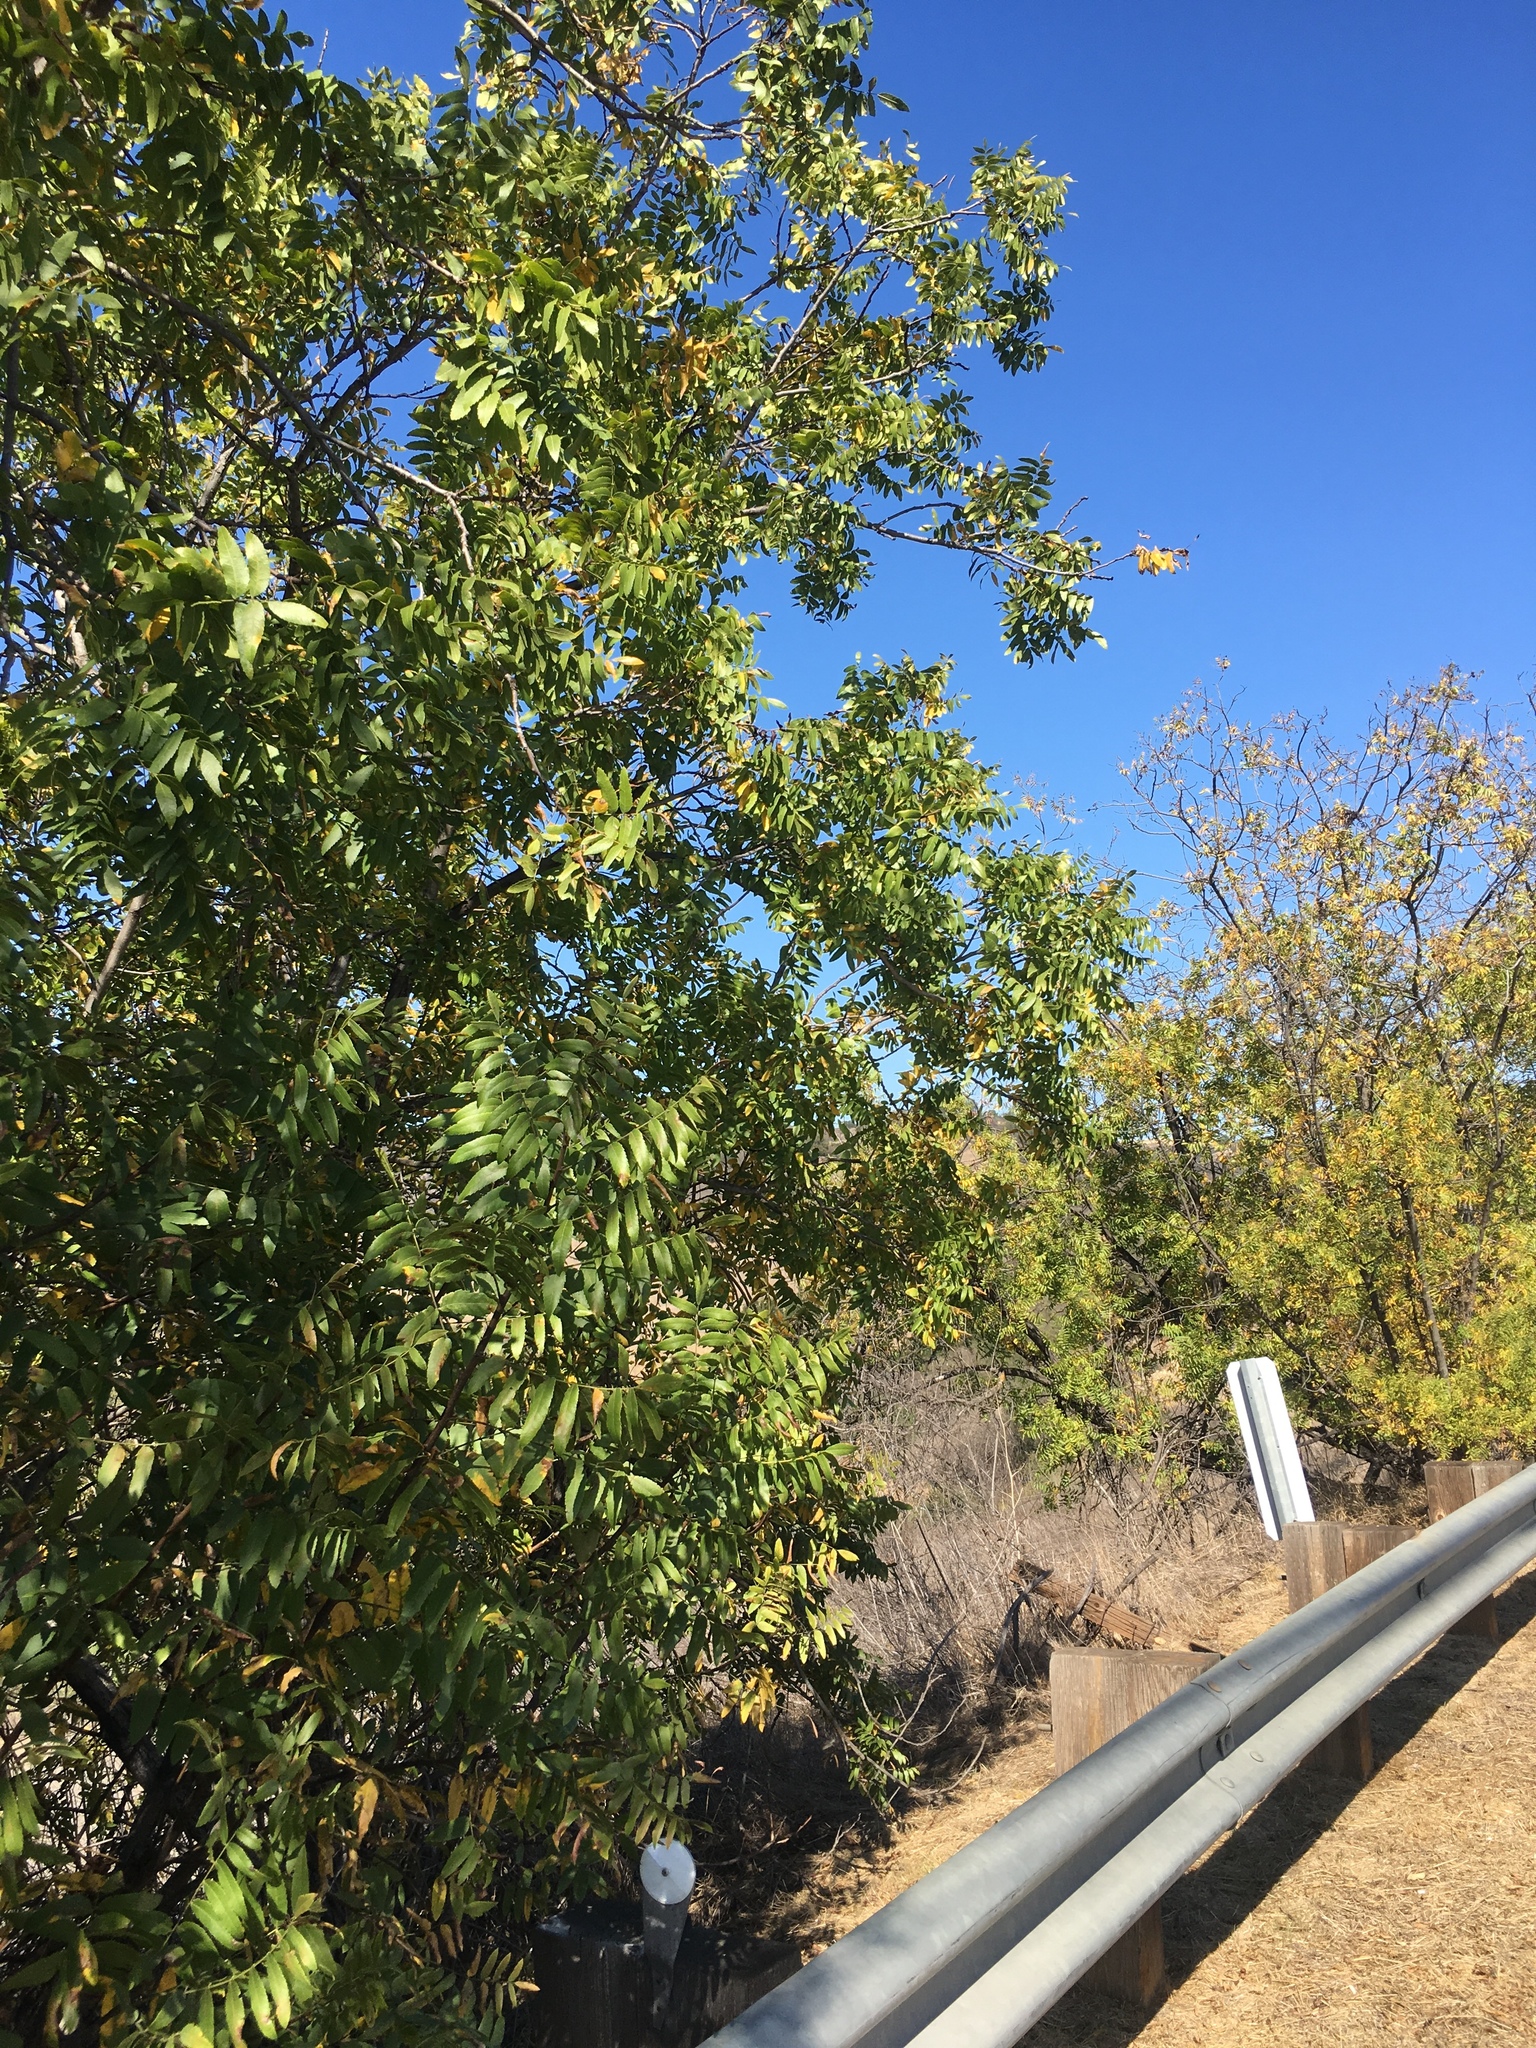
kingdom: Plantae
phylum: Tracheophyta
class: Magnoliopsida
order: Fagales
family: Juglandaceae
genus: Juglans
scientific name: Juglans californica
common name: Southern california black walnut
